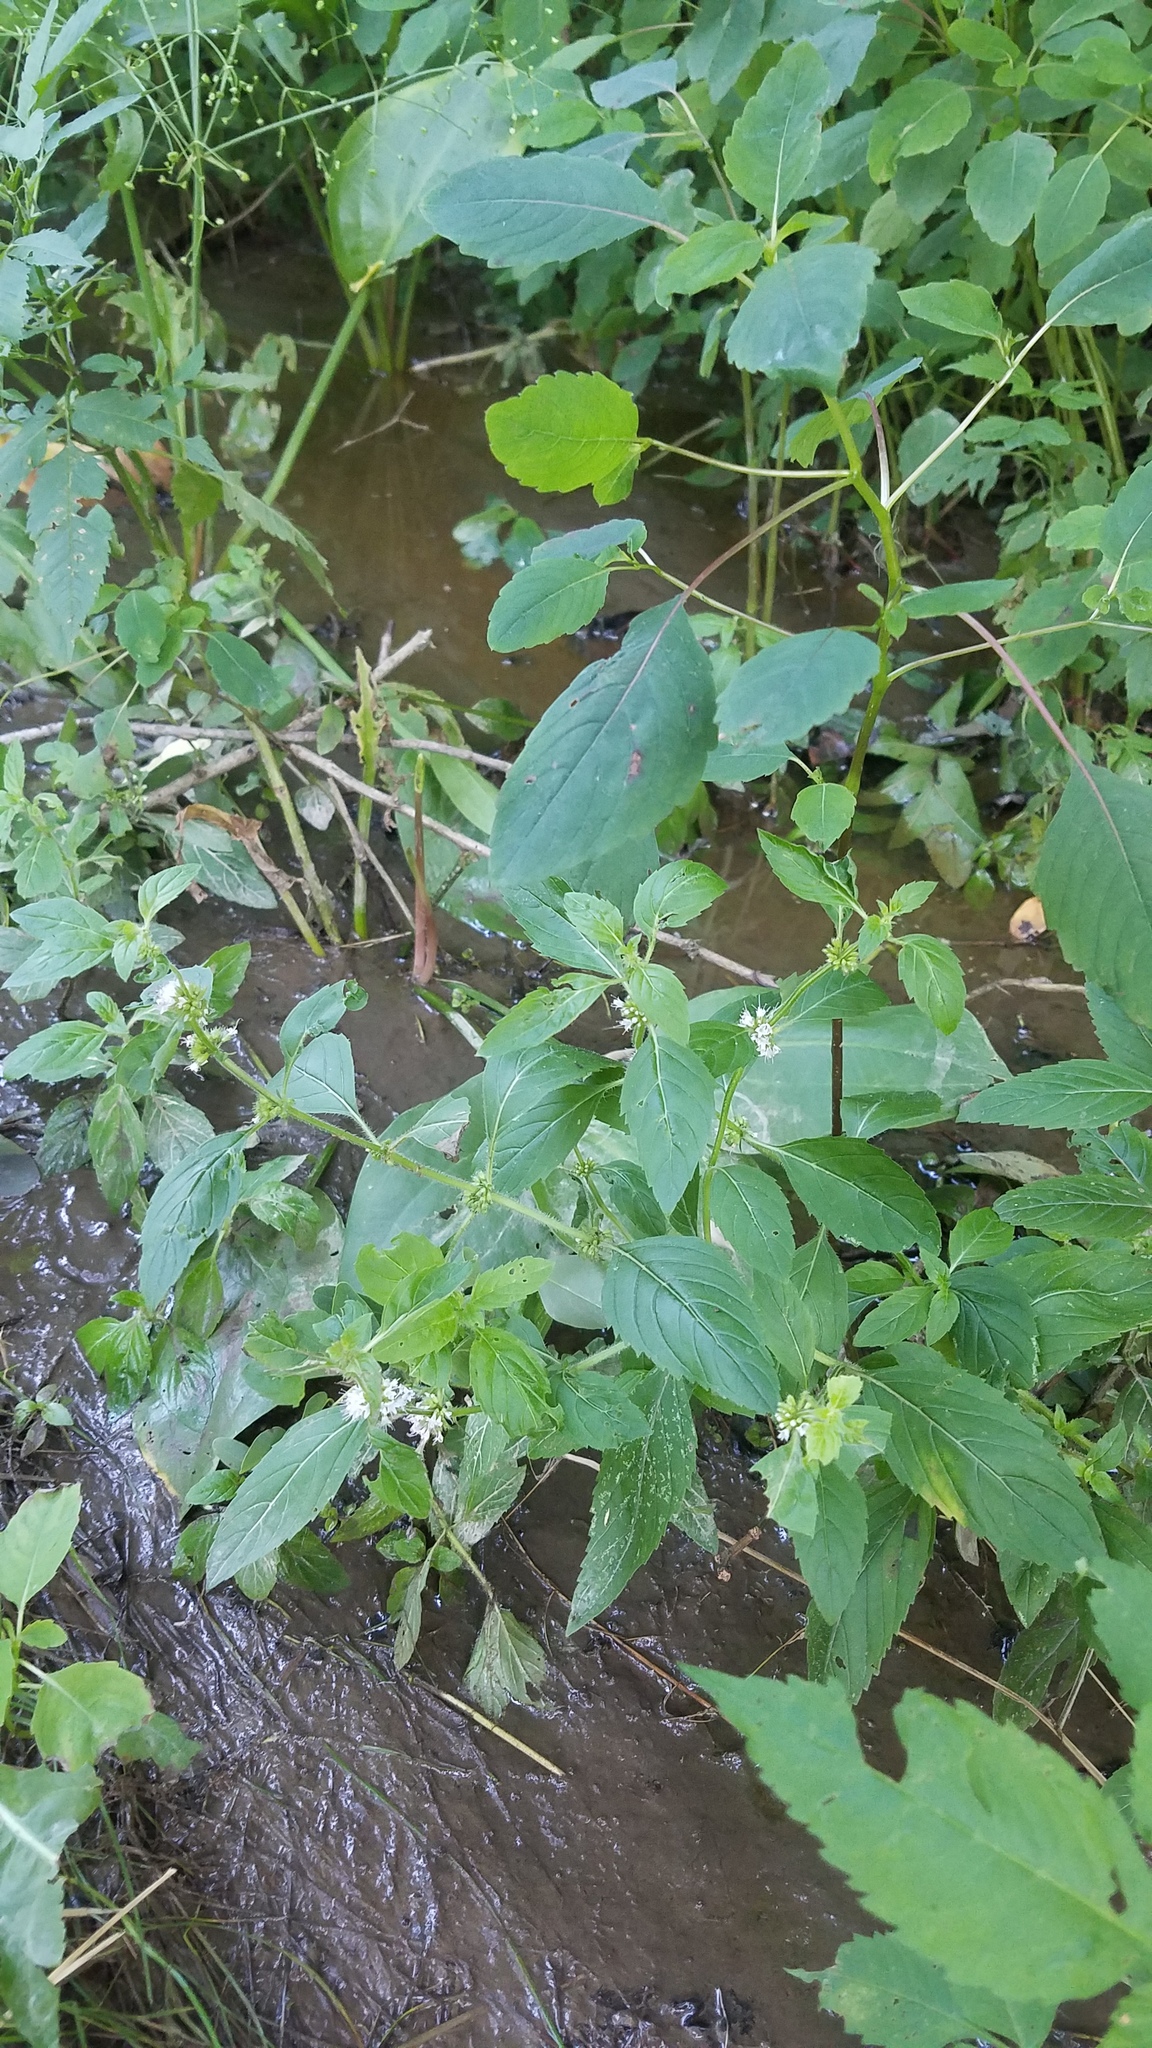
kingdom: Plantae
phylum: Tracheophyta
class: Magnoliopsida
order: Lamiales
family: Lamiaceae
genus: Mentha
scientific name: Mentha canadensis
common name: American corn mint
